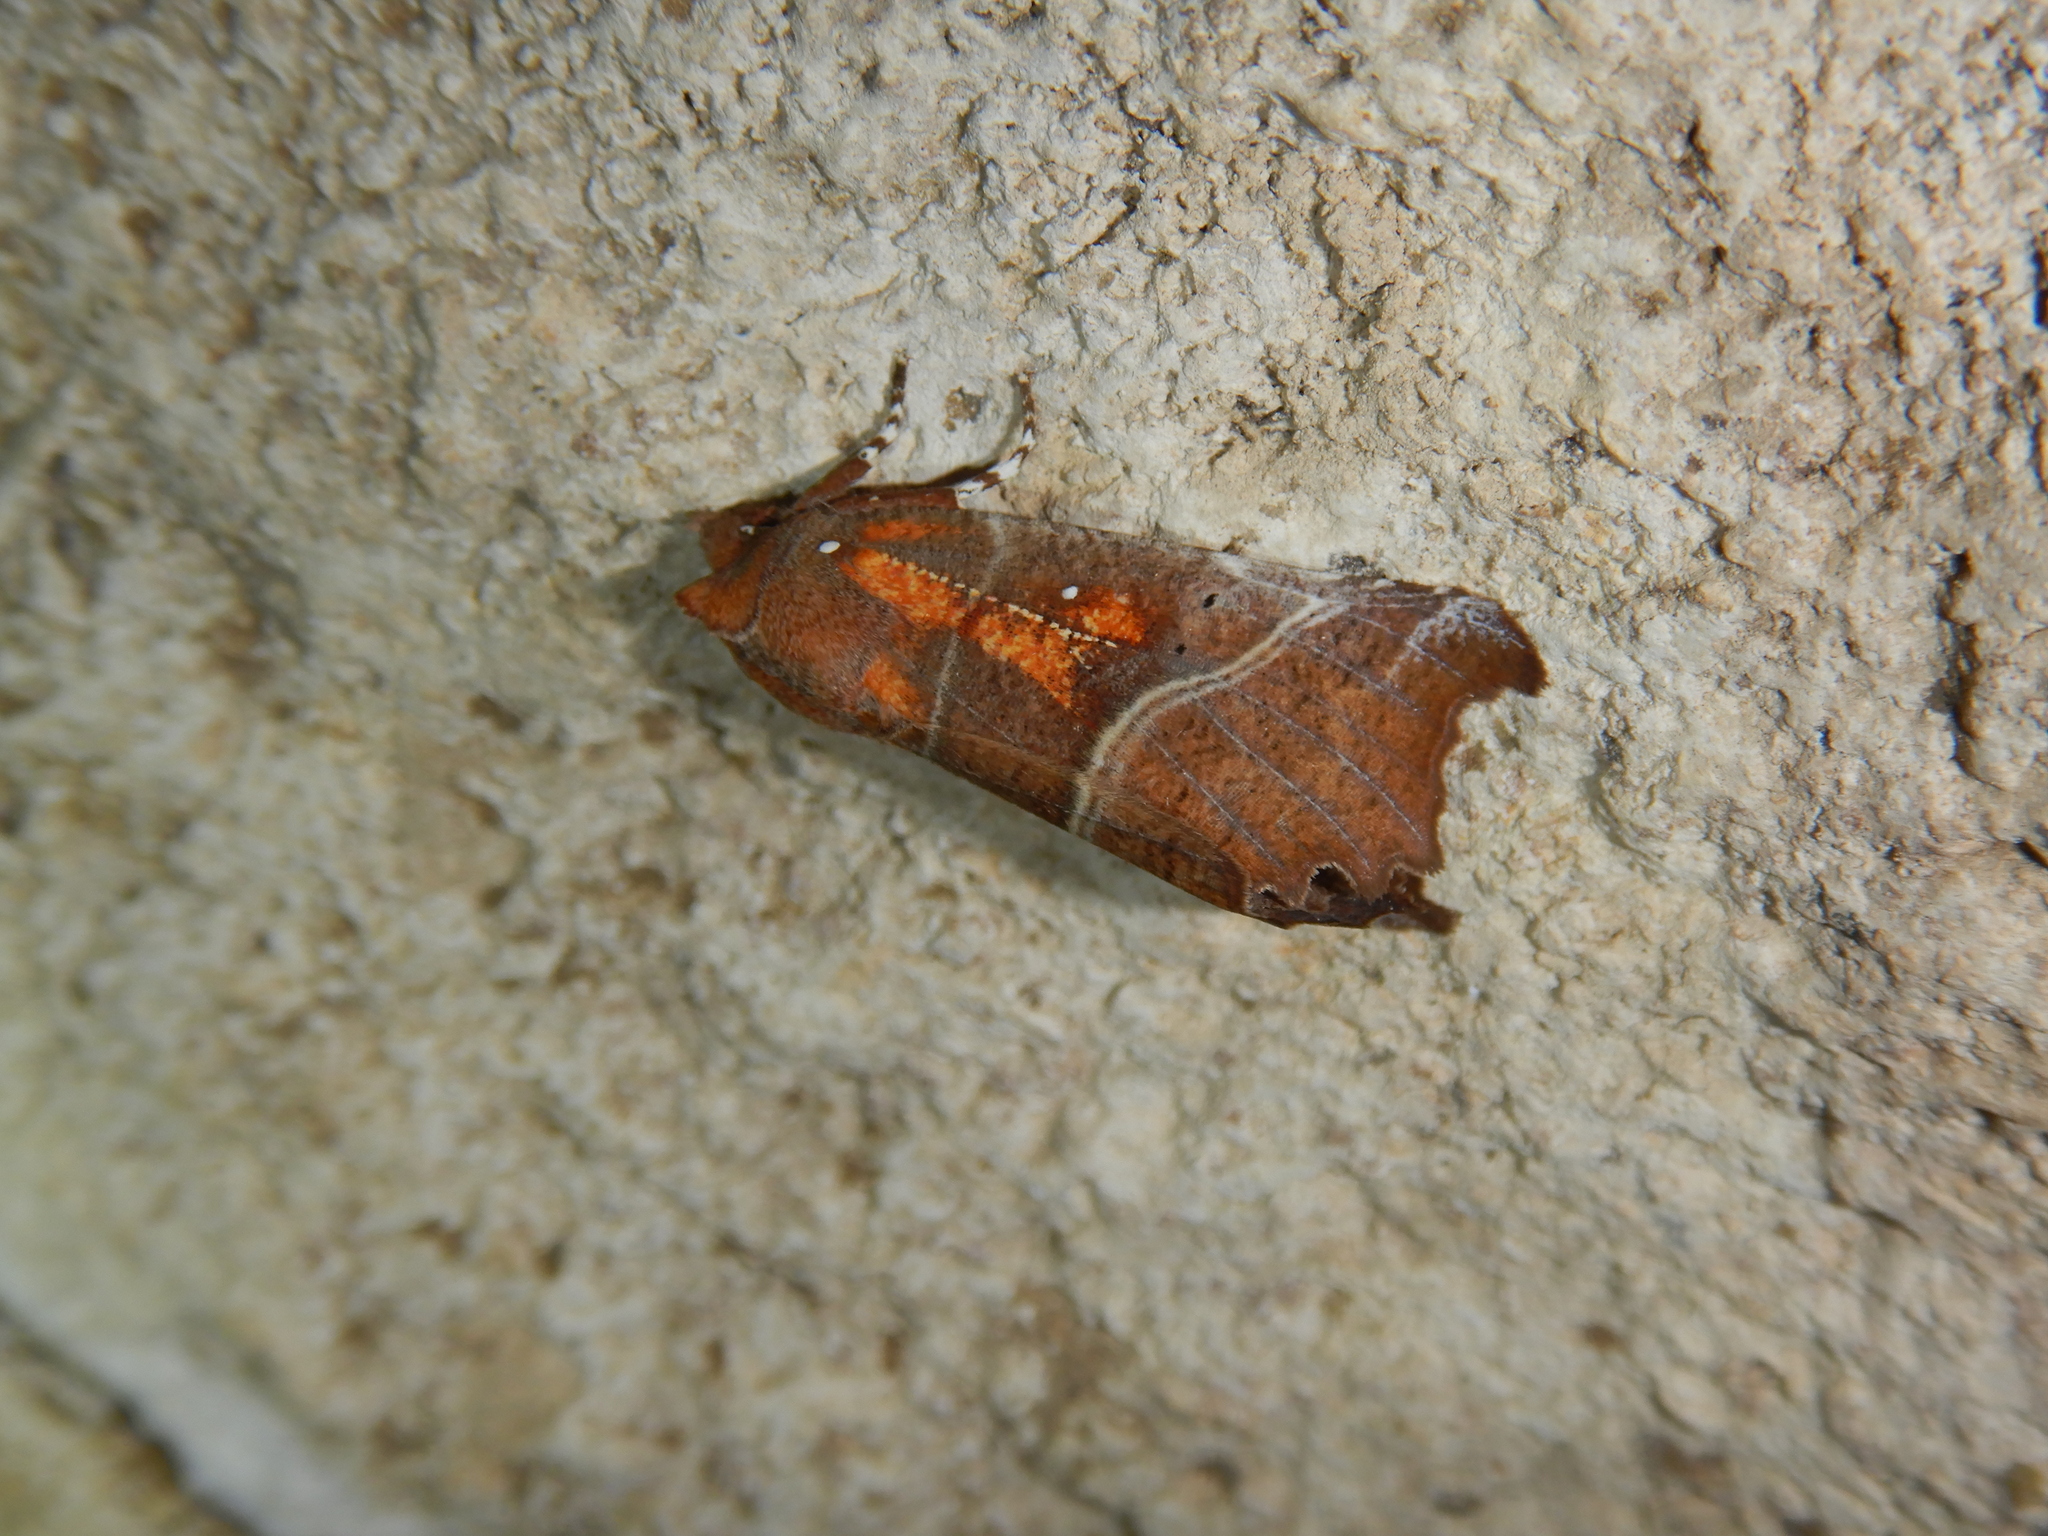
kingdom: Animalia
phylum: Arthropoda
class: Insecta
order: Lepidoptera
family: Erebidae
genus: Scoliopteryx
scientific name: Scoliopteryx libatrix
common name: Herald
